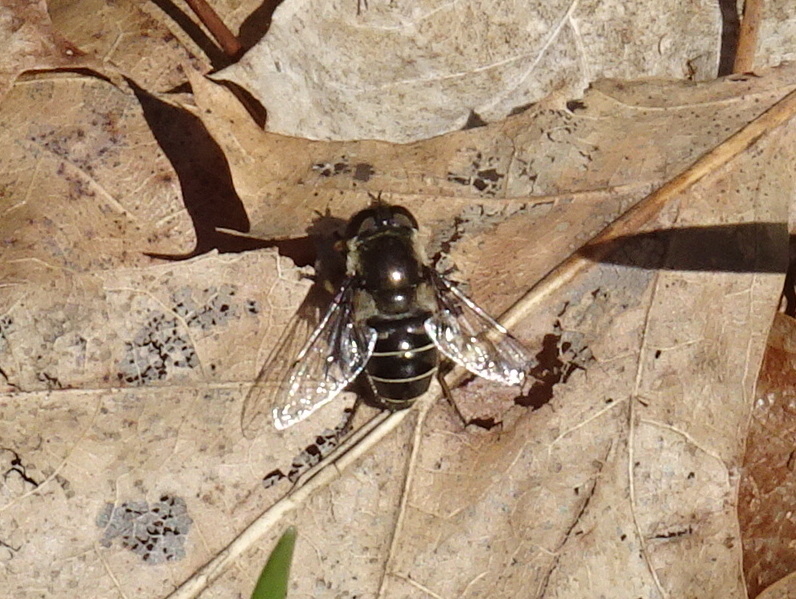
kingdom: Animalia
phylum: Arthropoda
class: Insecta
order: Diptera
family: Syrphidae
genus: Eristalis
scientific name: Eristalis dimidiata
